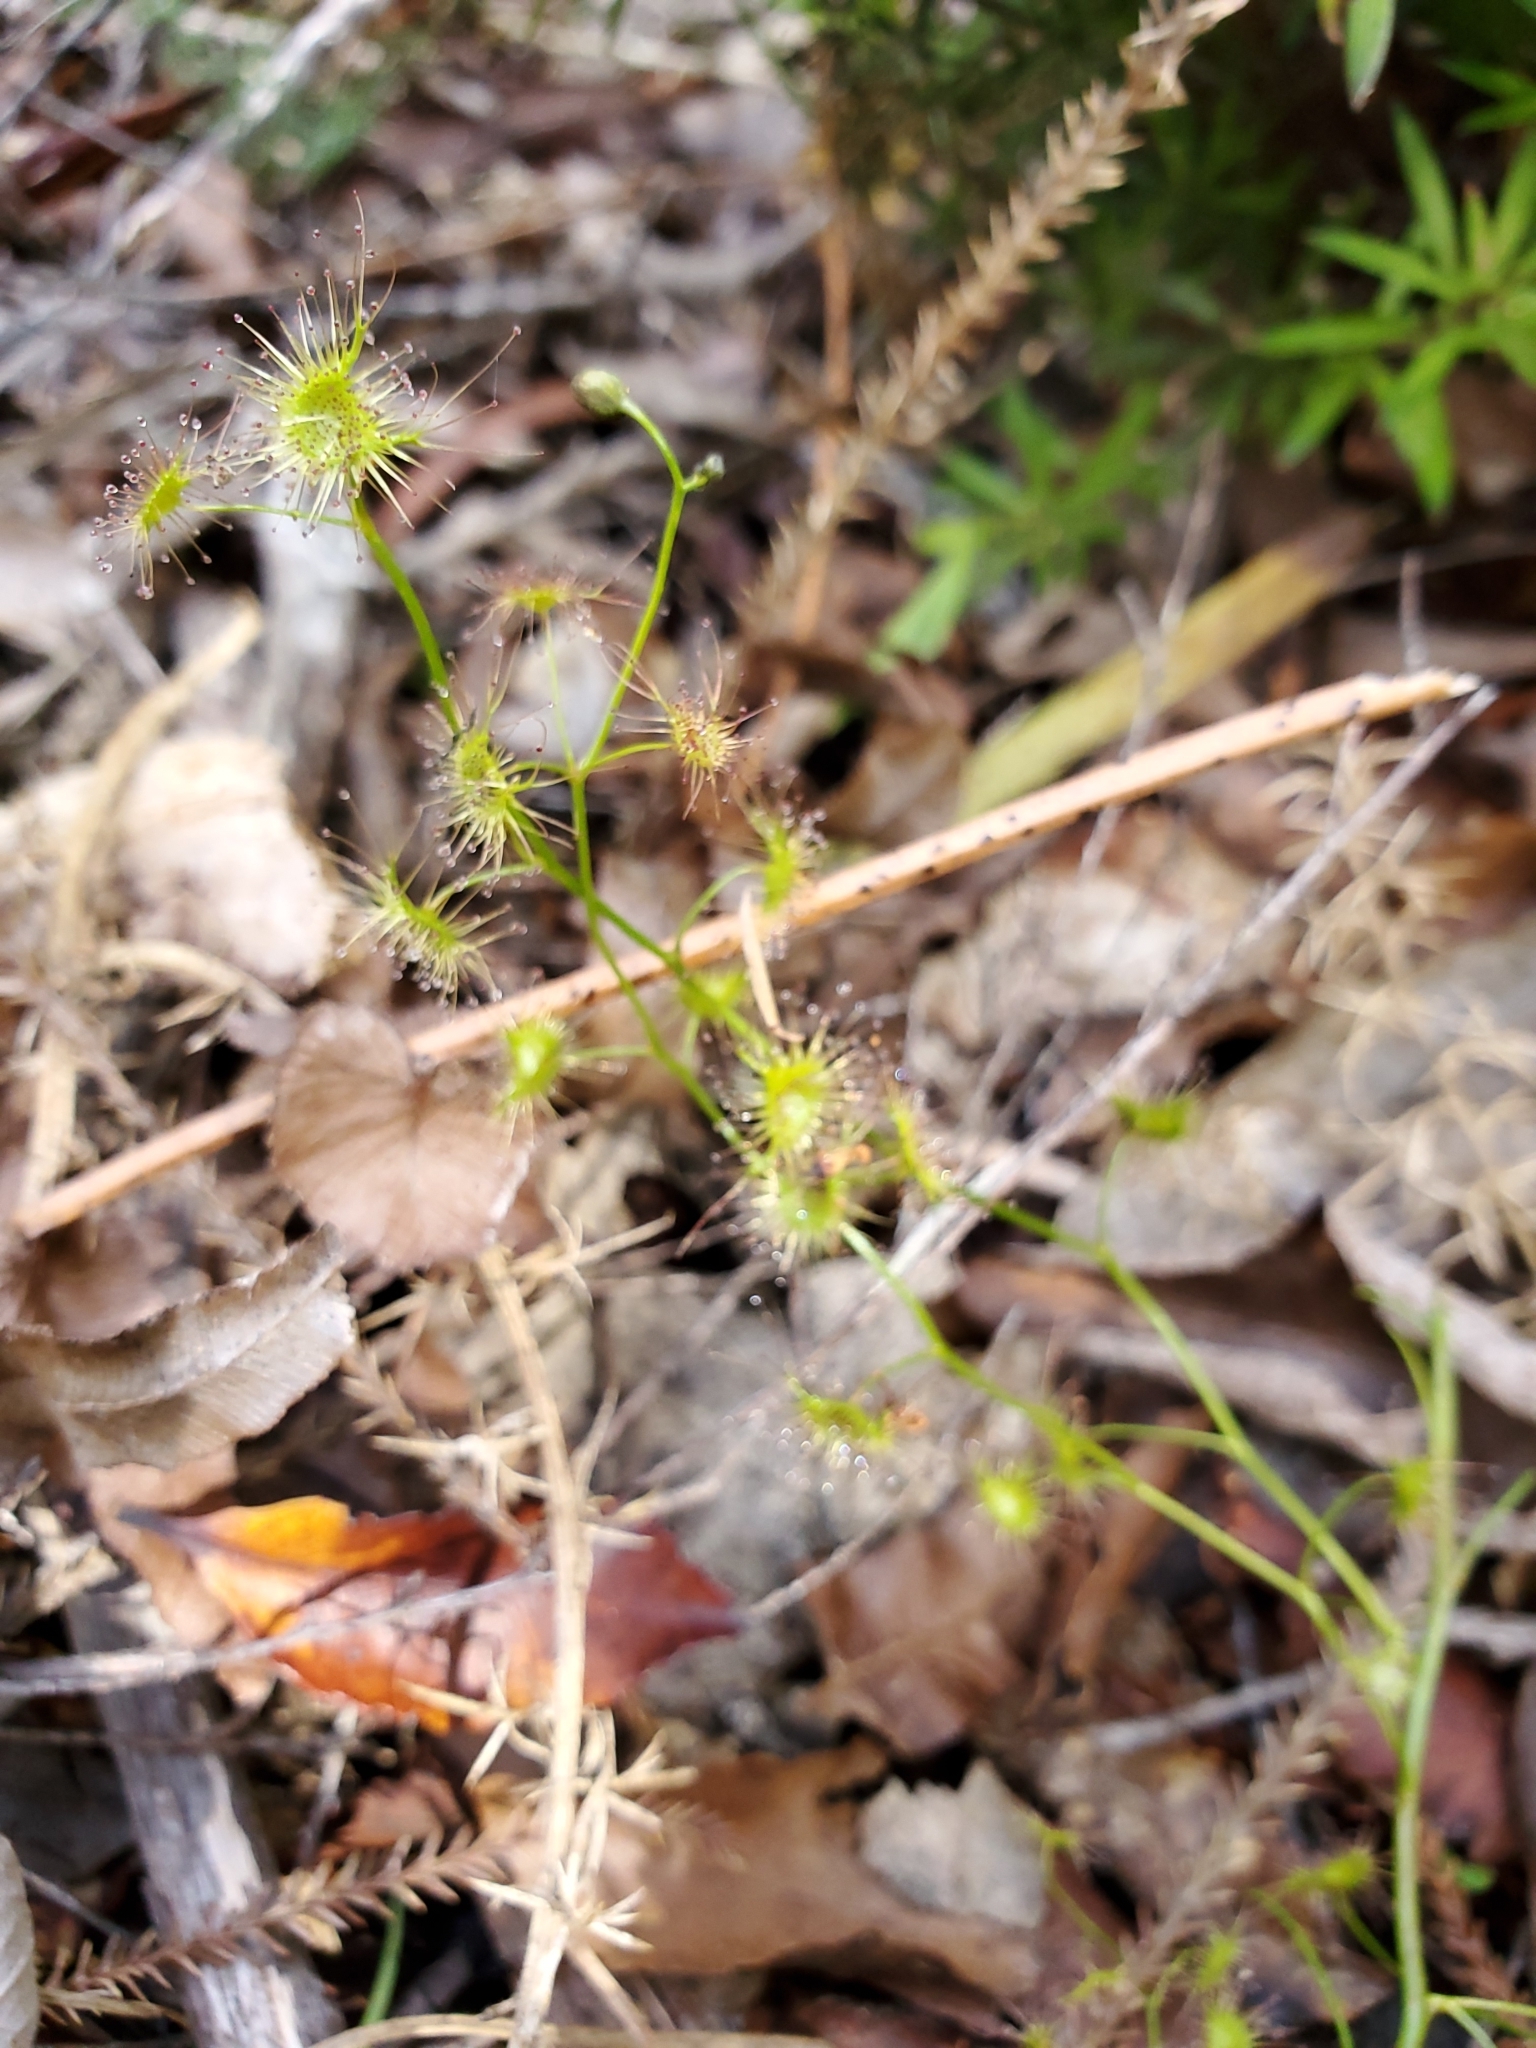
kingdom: Plantae
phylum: Tracheophyta
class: Magnoliopsida
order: Caryophyllales
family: Droseraceae
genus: Drosera
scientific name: Drosera peltata
